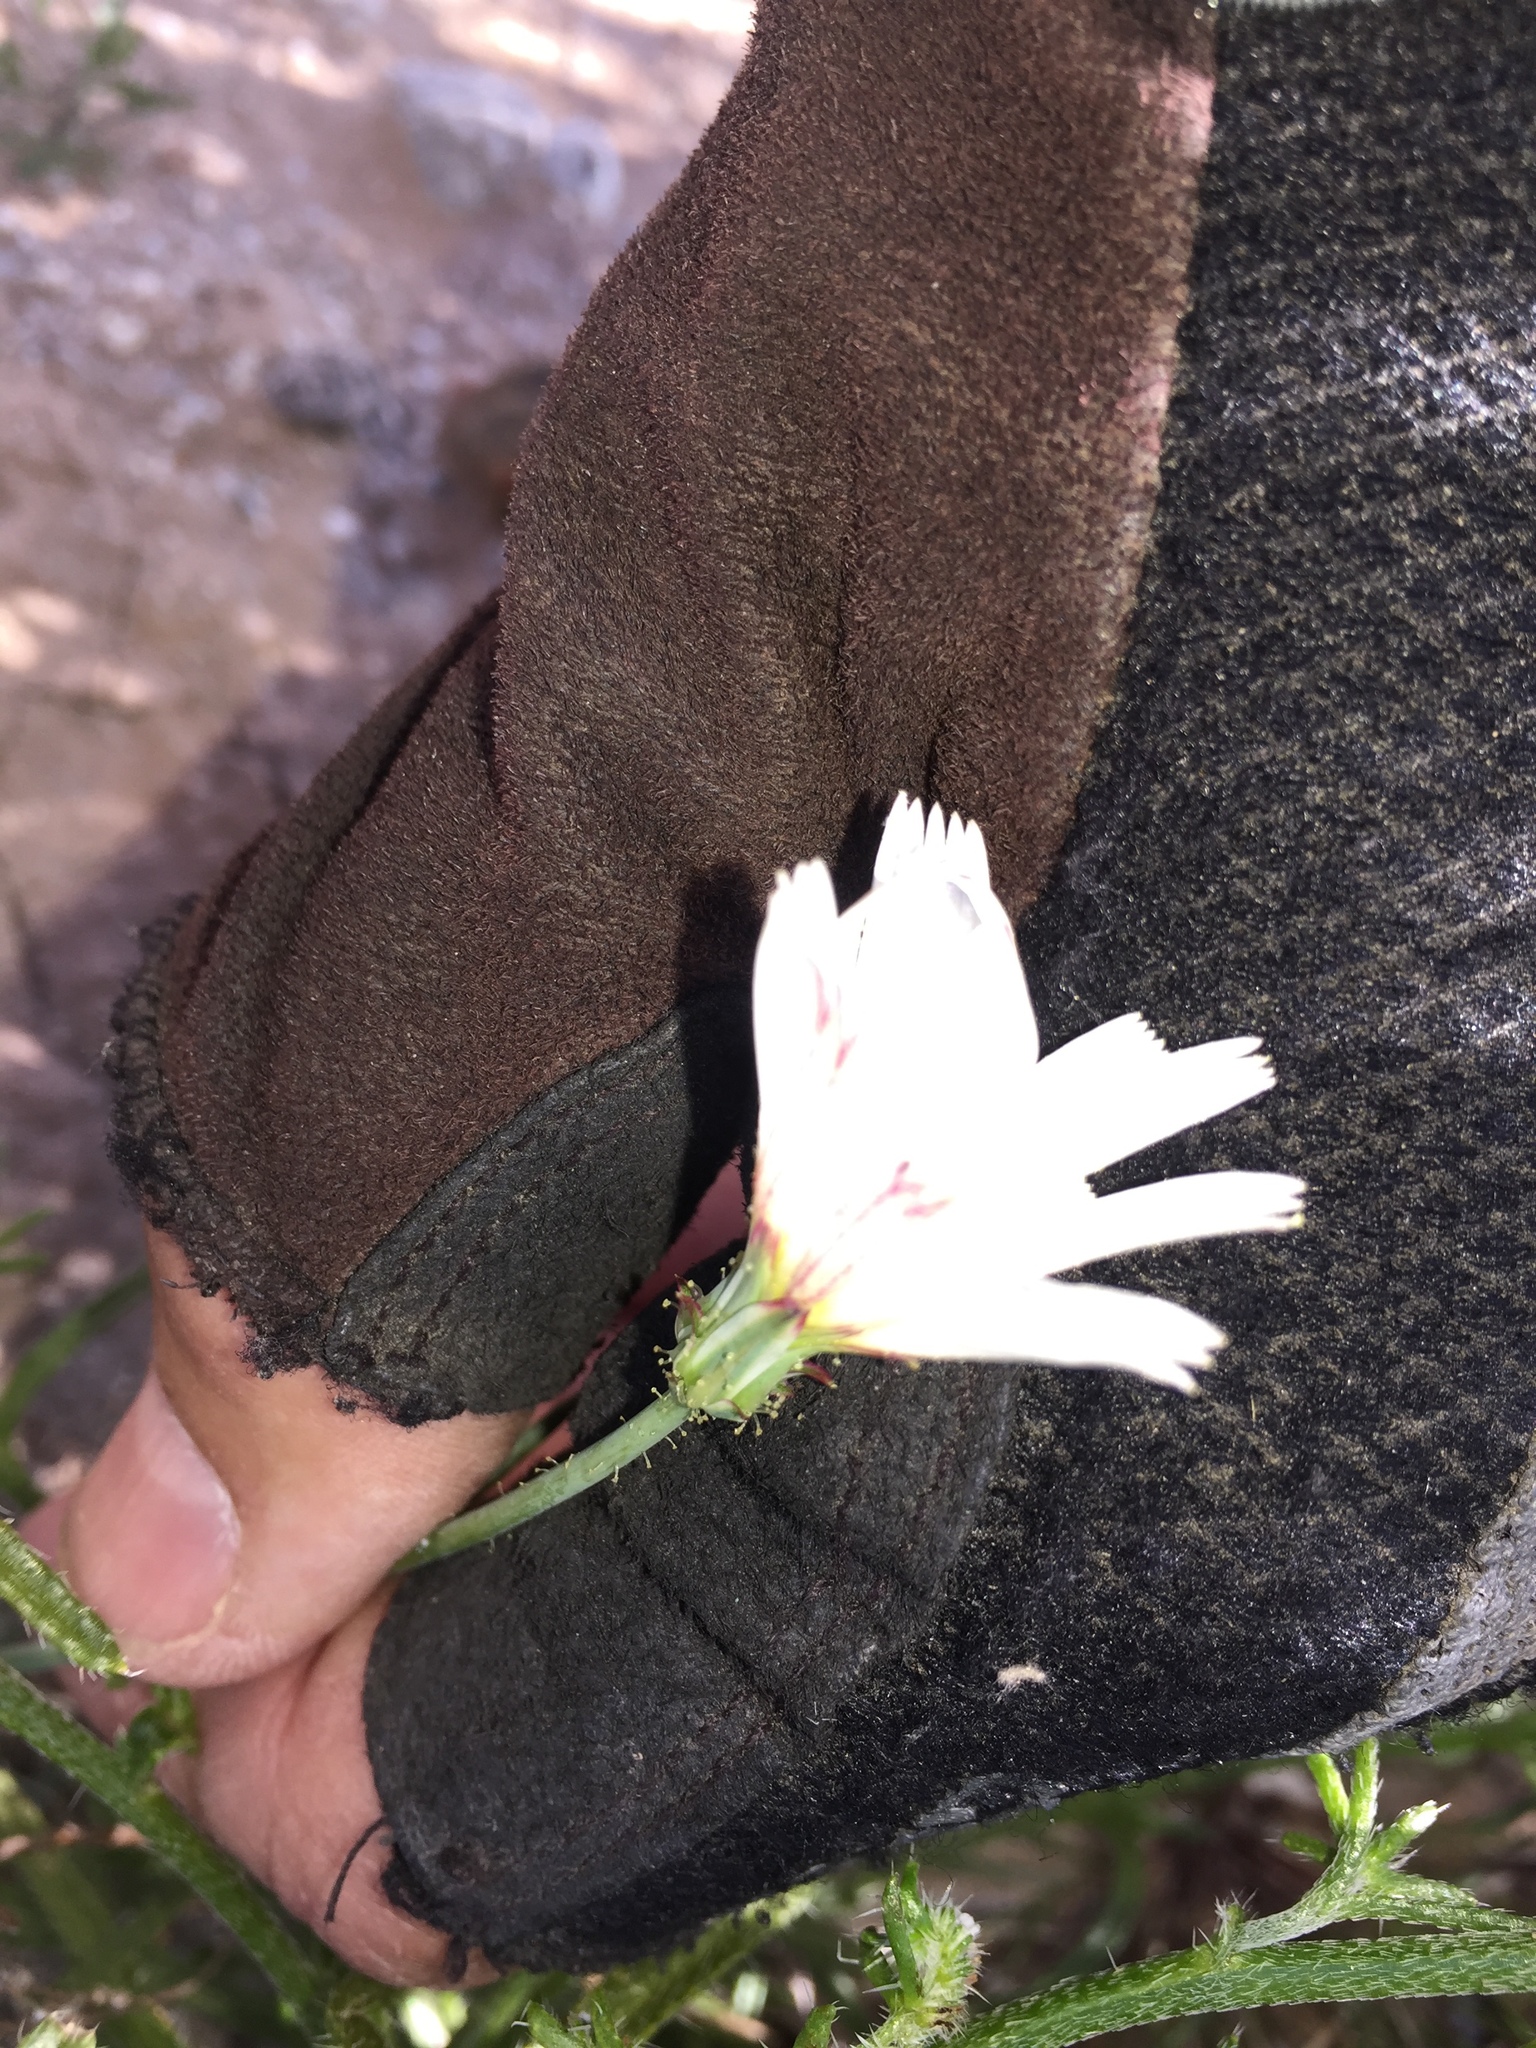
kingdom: Plantae
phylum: Tracheophyta
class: Magnoliopsida
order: Asterales
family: Asteraceae
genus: Calycoseris
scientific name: Calycoseris wrightii
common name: White tackstem
